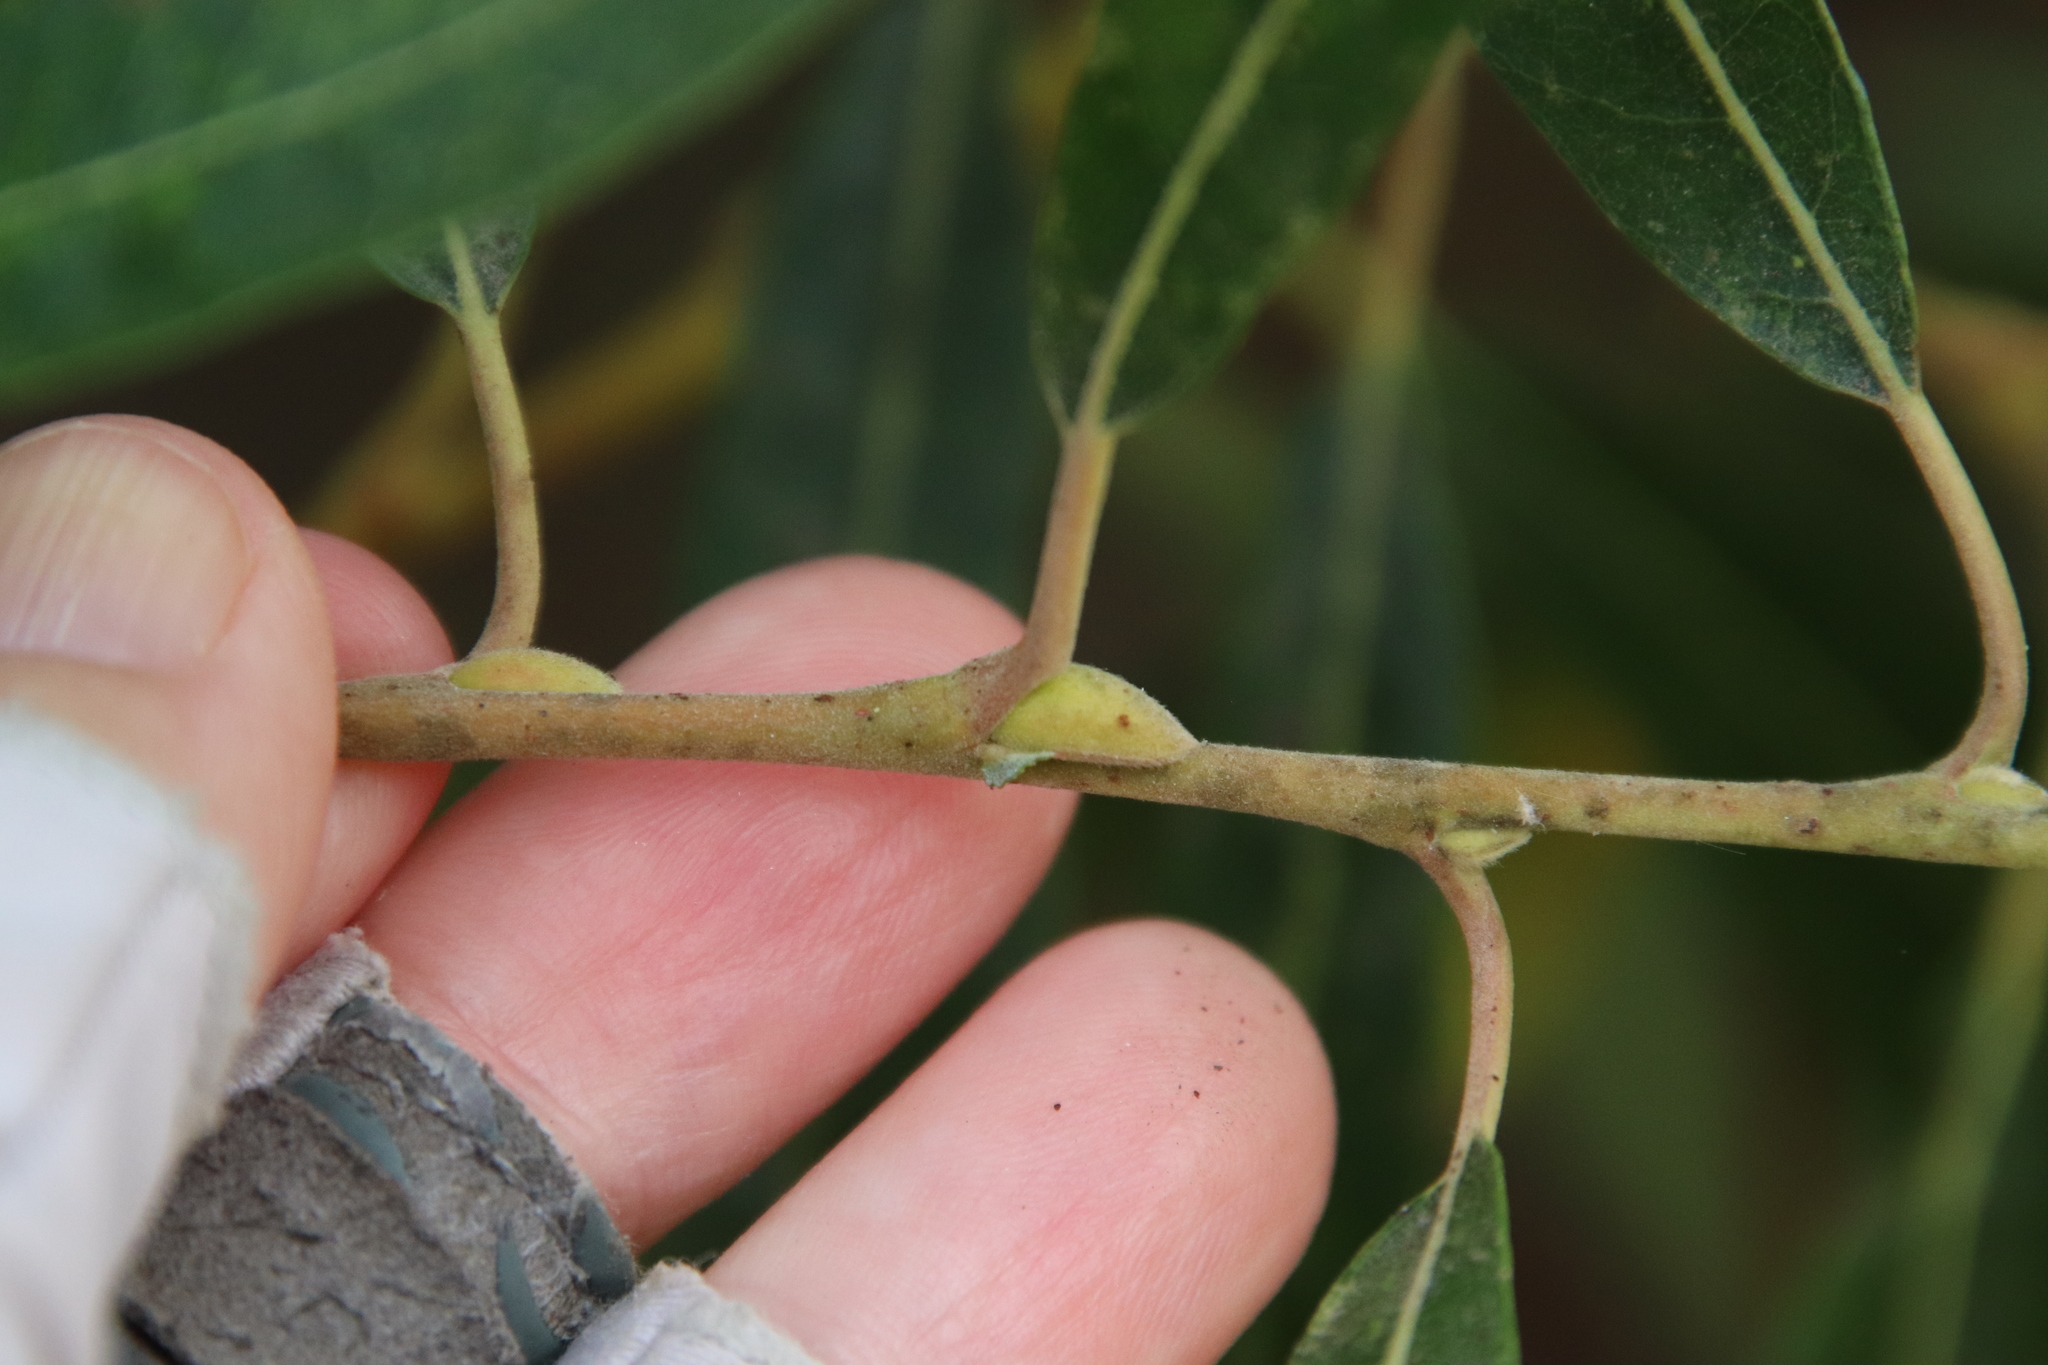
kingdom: Plantae
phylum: Tracheophyta
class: Magnoliopsida
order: Malpighiales
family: Salicaceae
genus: Salix
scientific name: Salix lasiolepis
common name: Arroyo willow
